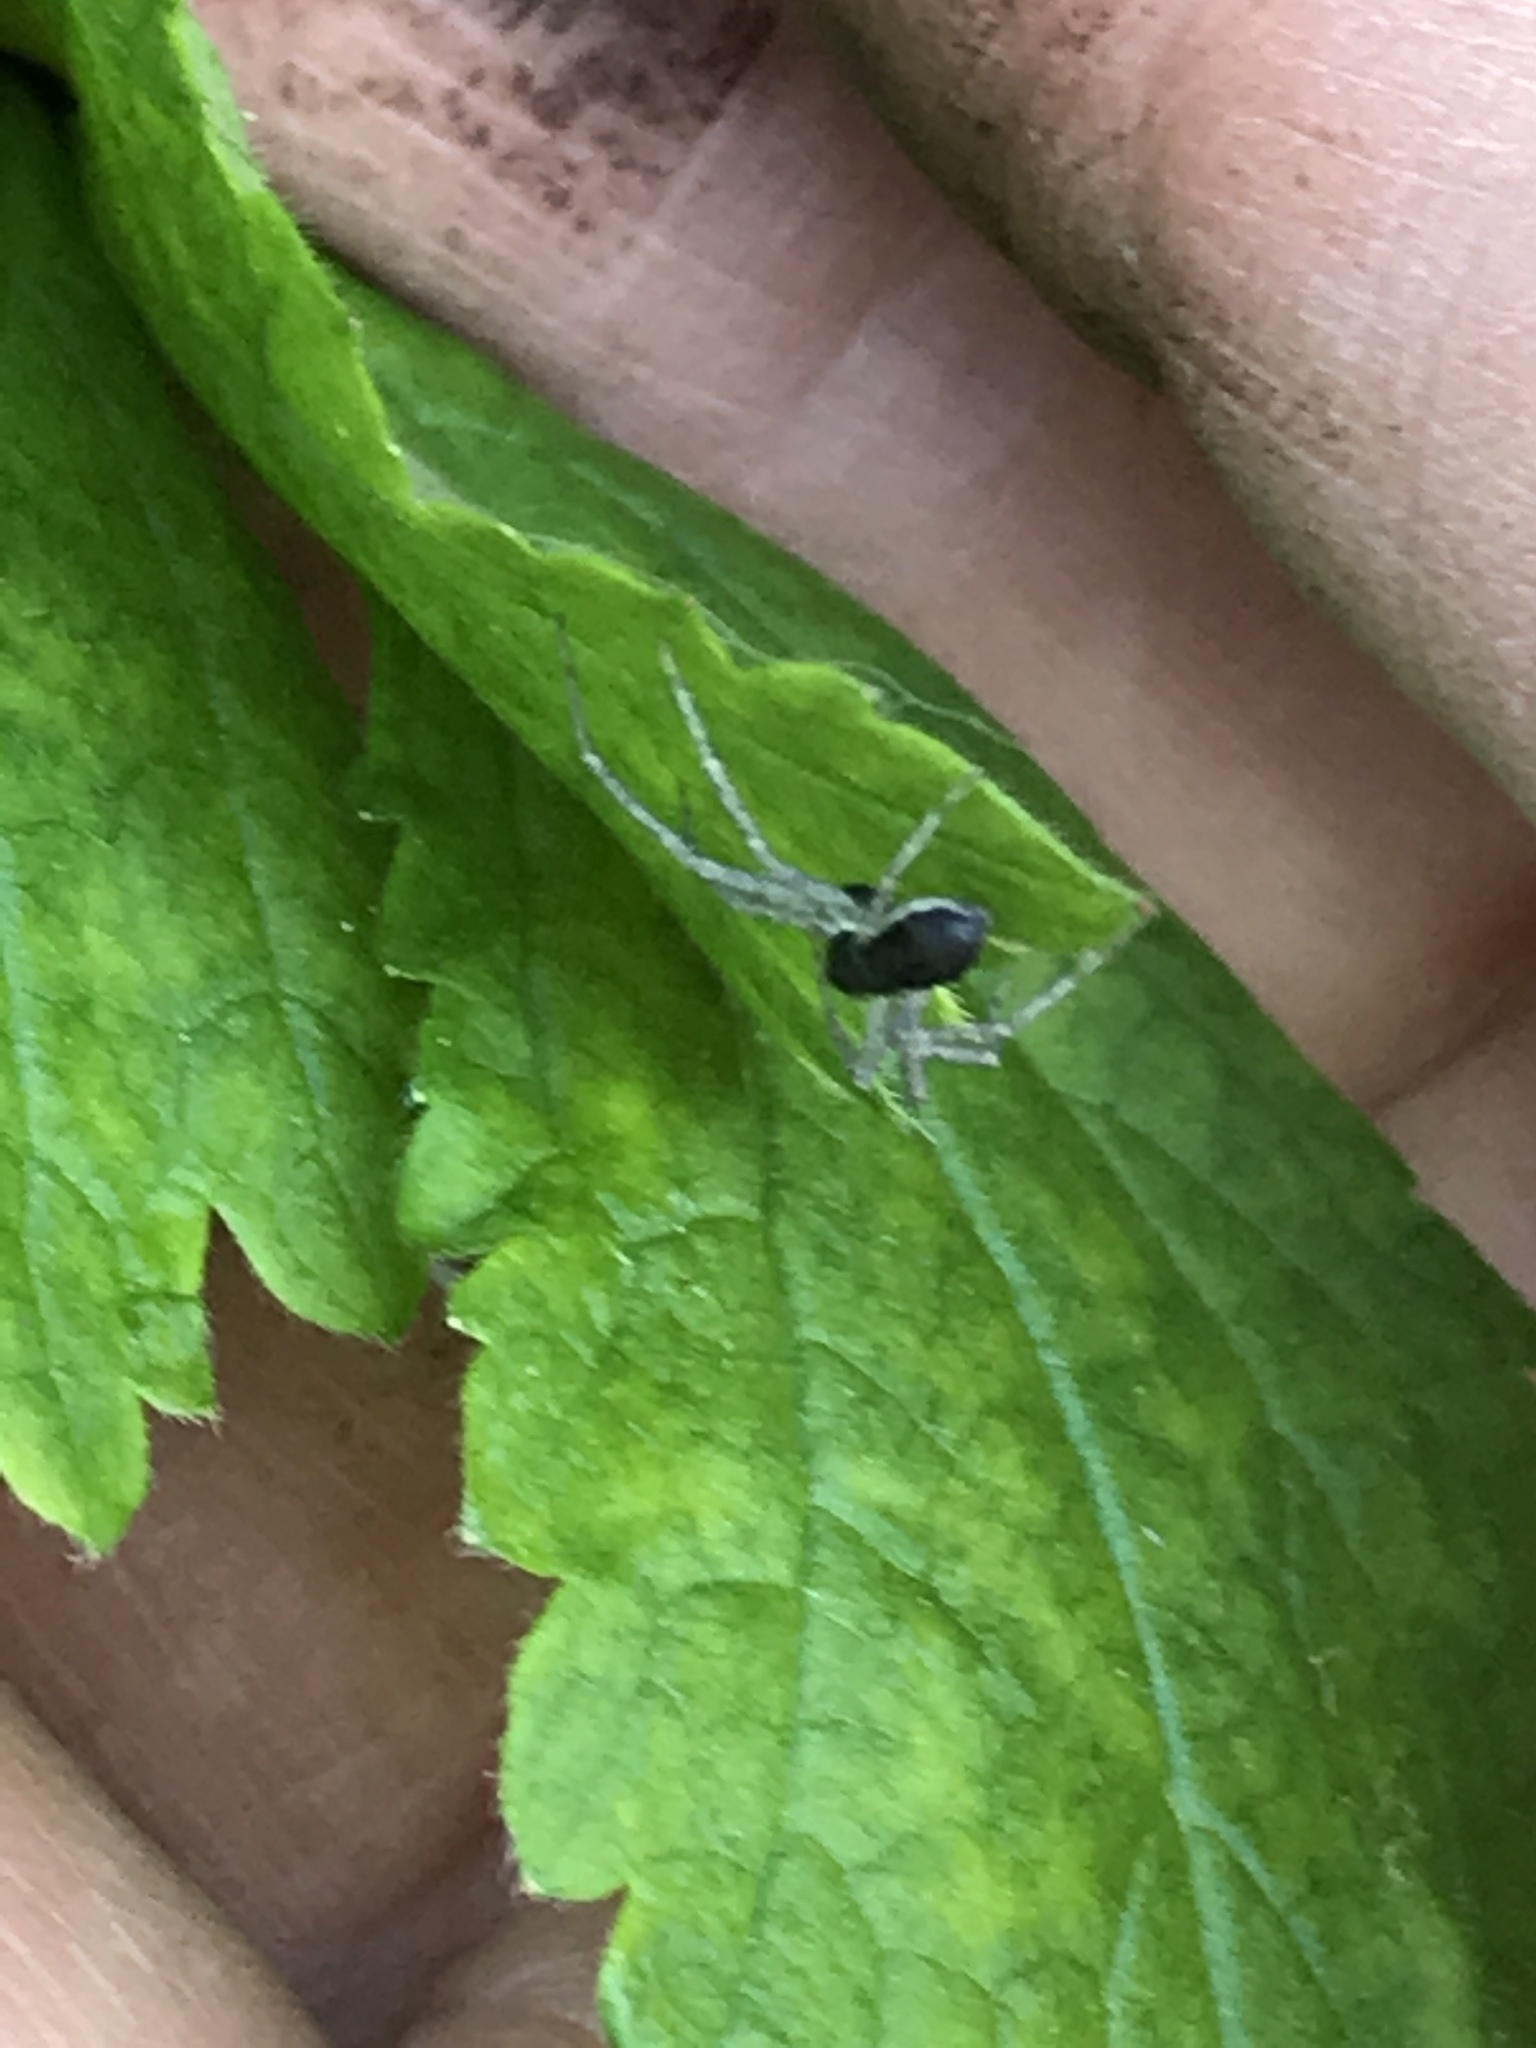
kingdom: Animalia
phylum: Arthropoda
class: Arachnida
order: Araneae
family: Philodromidae
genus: Philodromus
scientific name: Philodromus dispar
